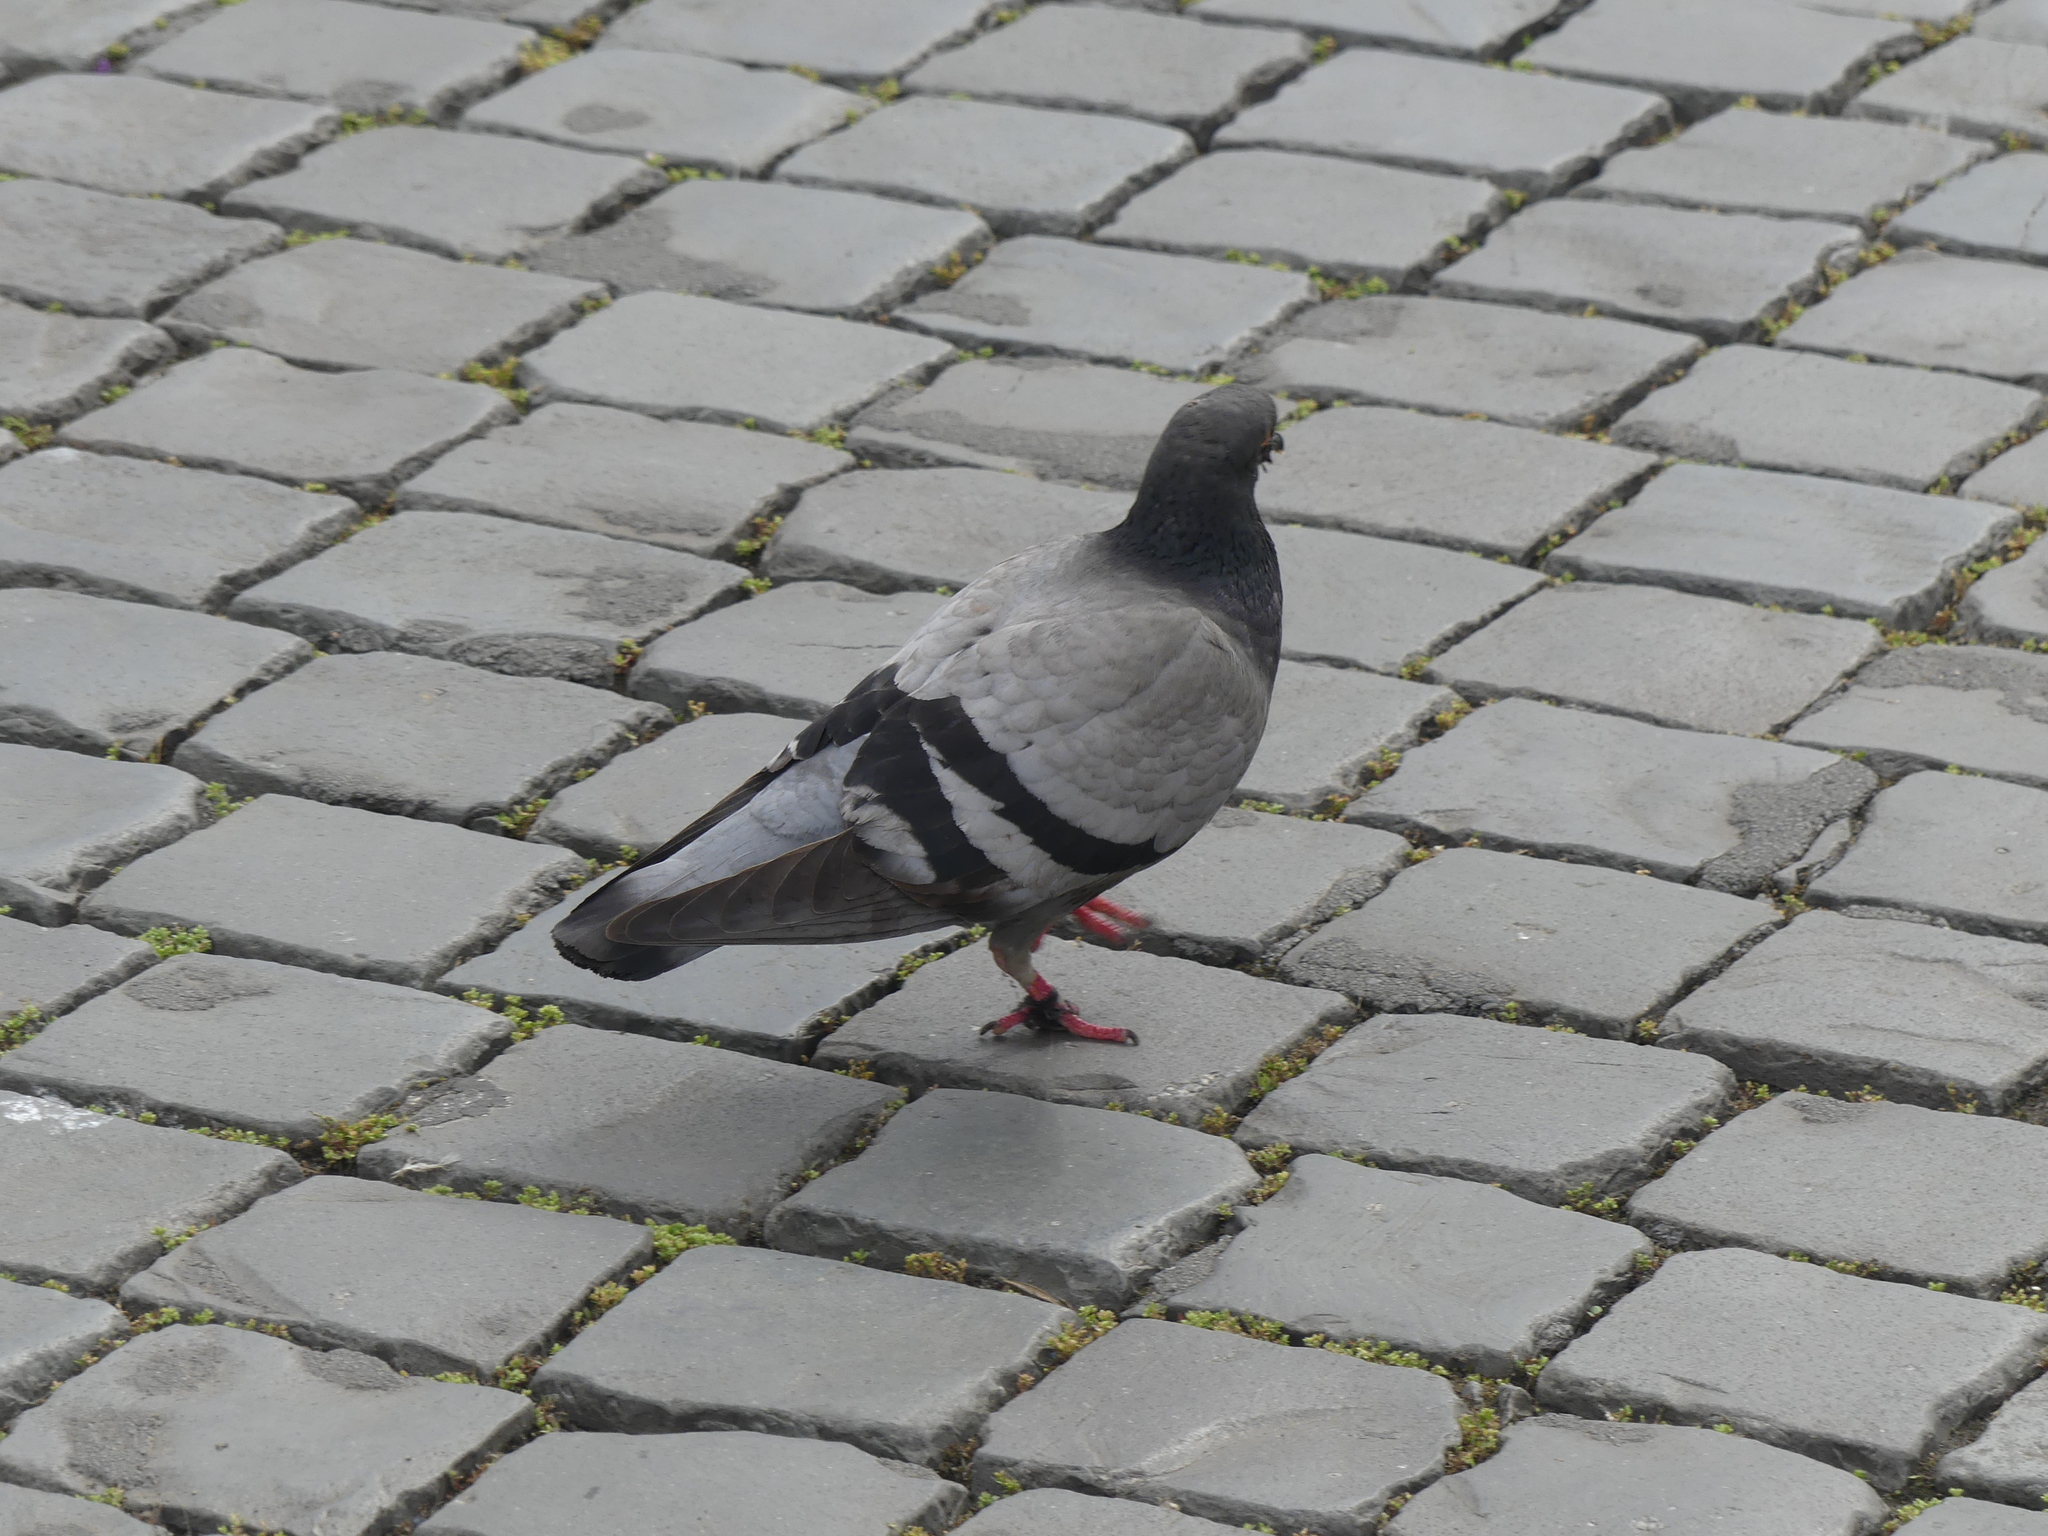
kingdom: Animalia
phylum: Chordata
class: Aves
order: Columbiformes
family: Columbidae
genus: Columba
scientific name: Columba livia
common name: Rock pigeon
